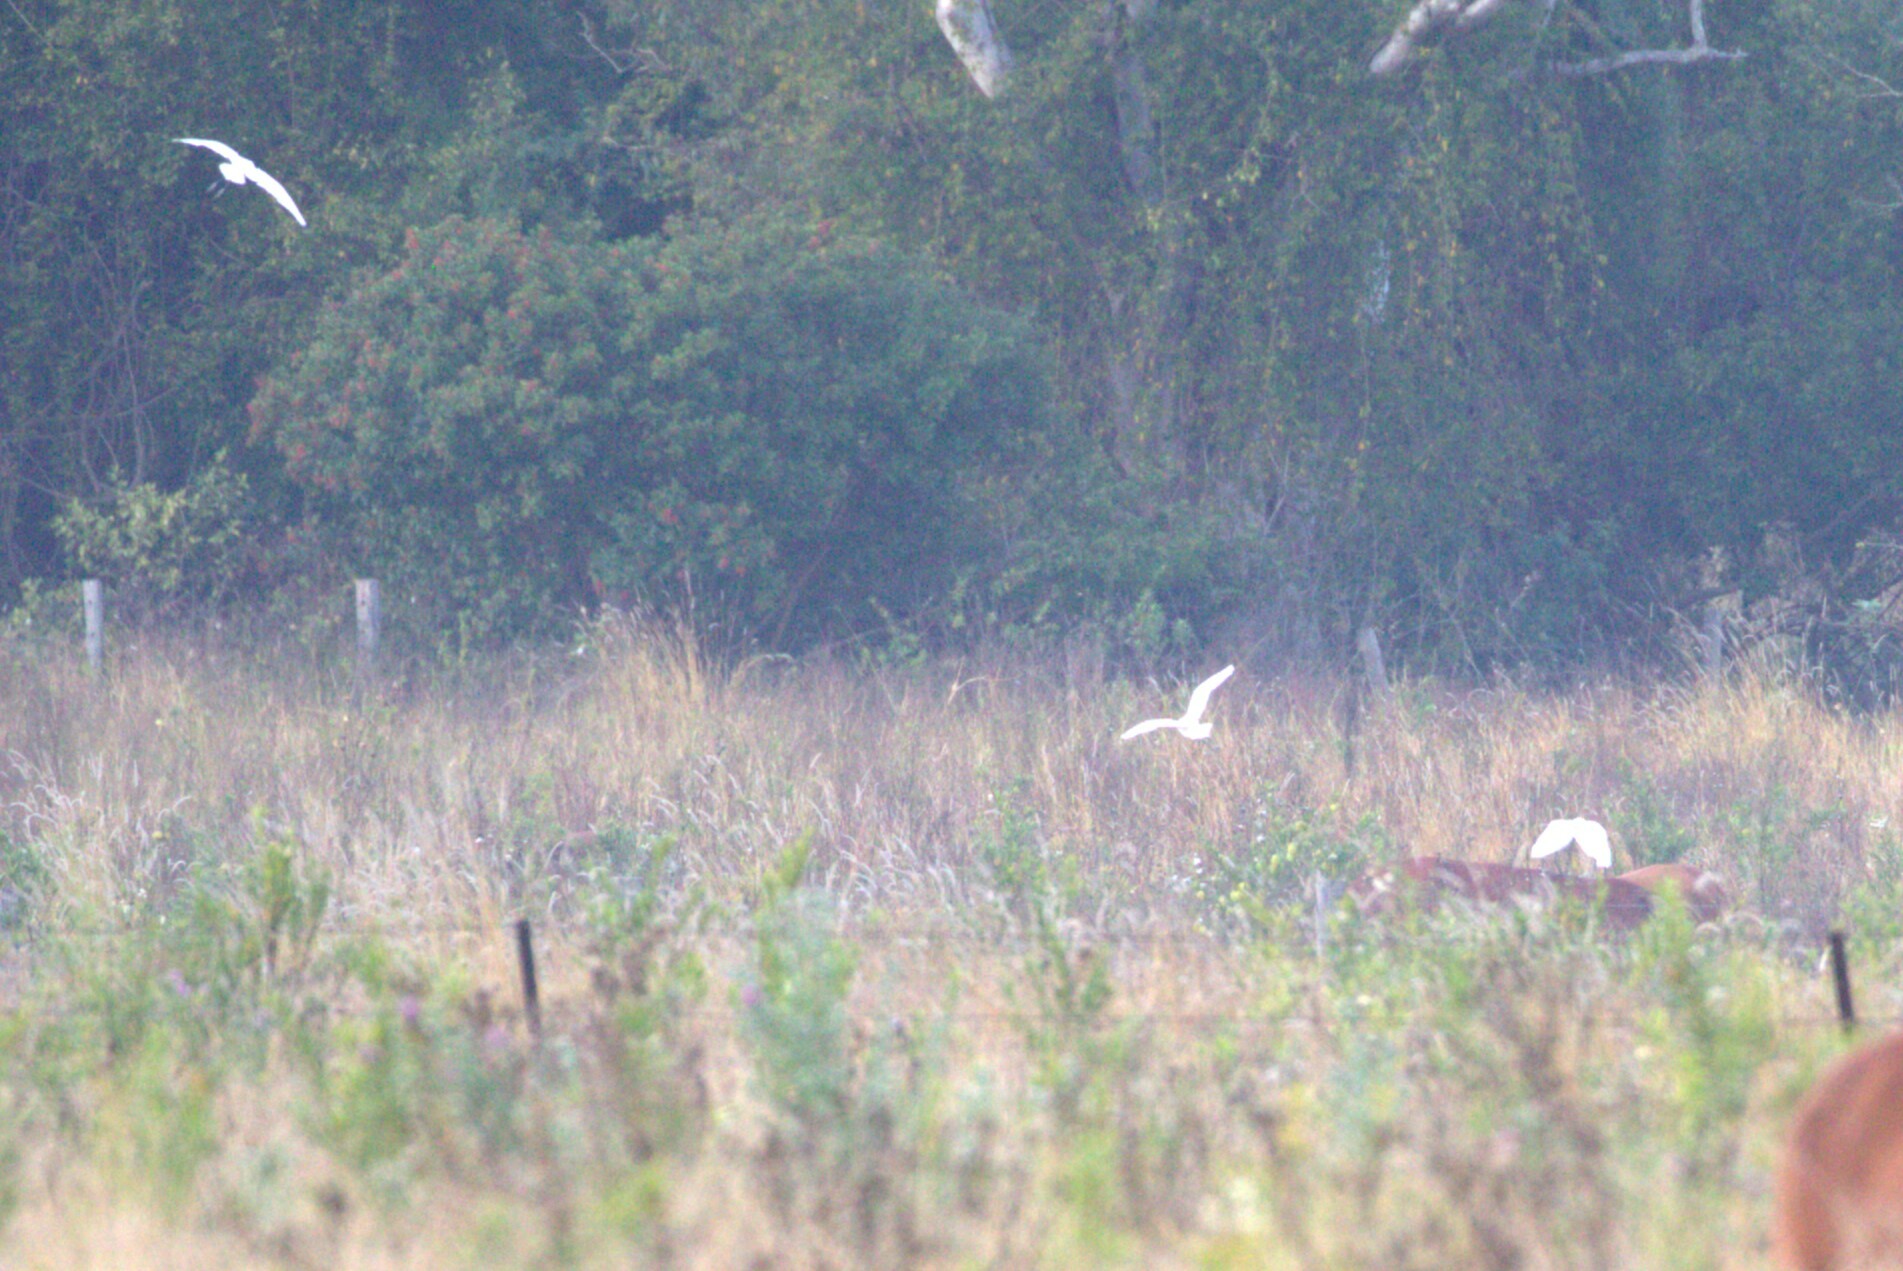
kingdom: Animalia
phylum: Chordata
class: Aves
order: Pelecaniformes
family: Ardeidae
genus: Bubulcus
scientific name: Bubulcus coromandus
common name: Eastern cattle egret
